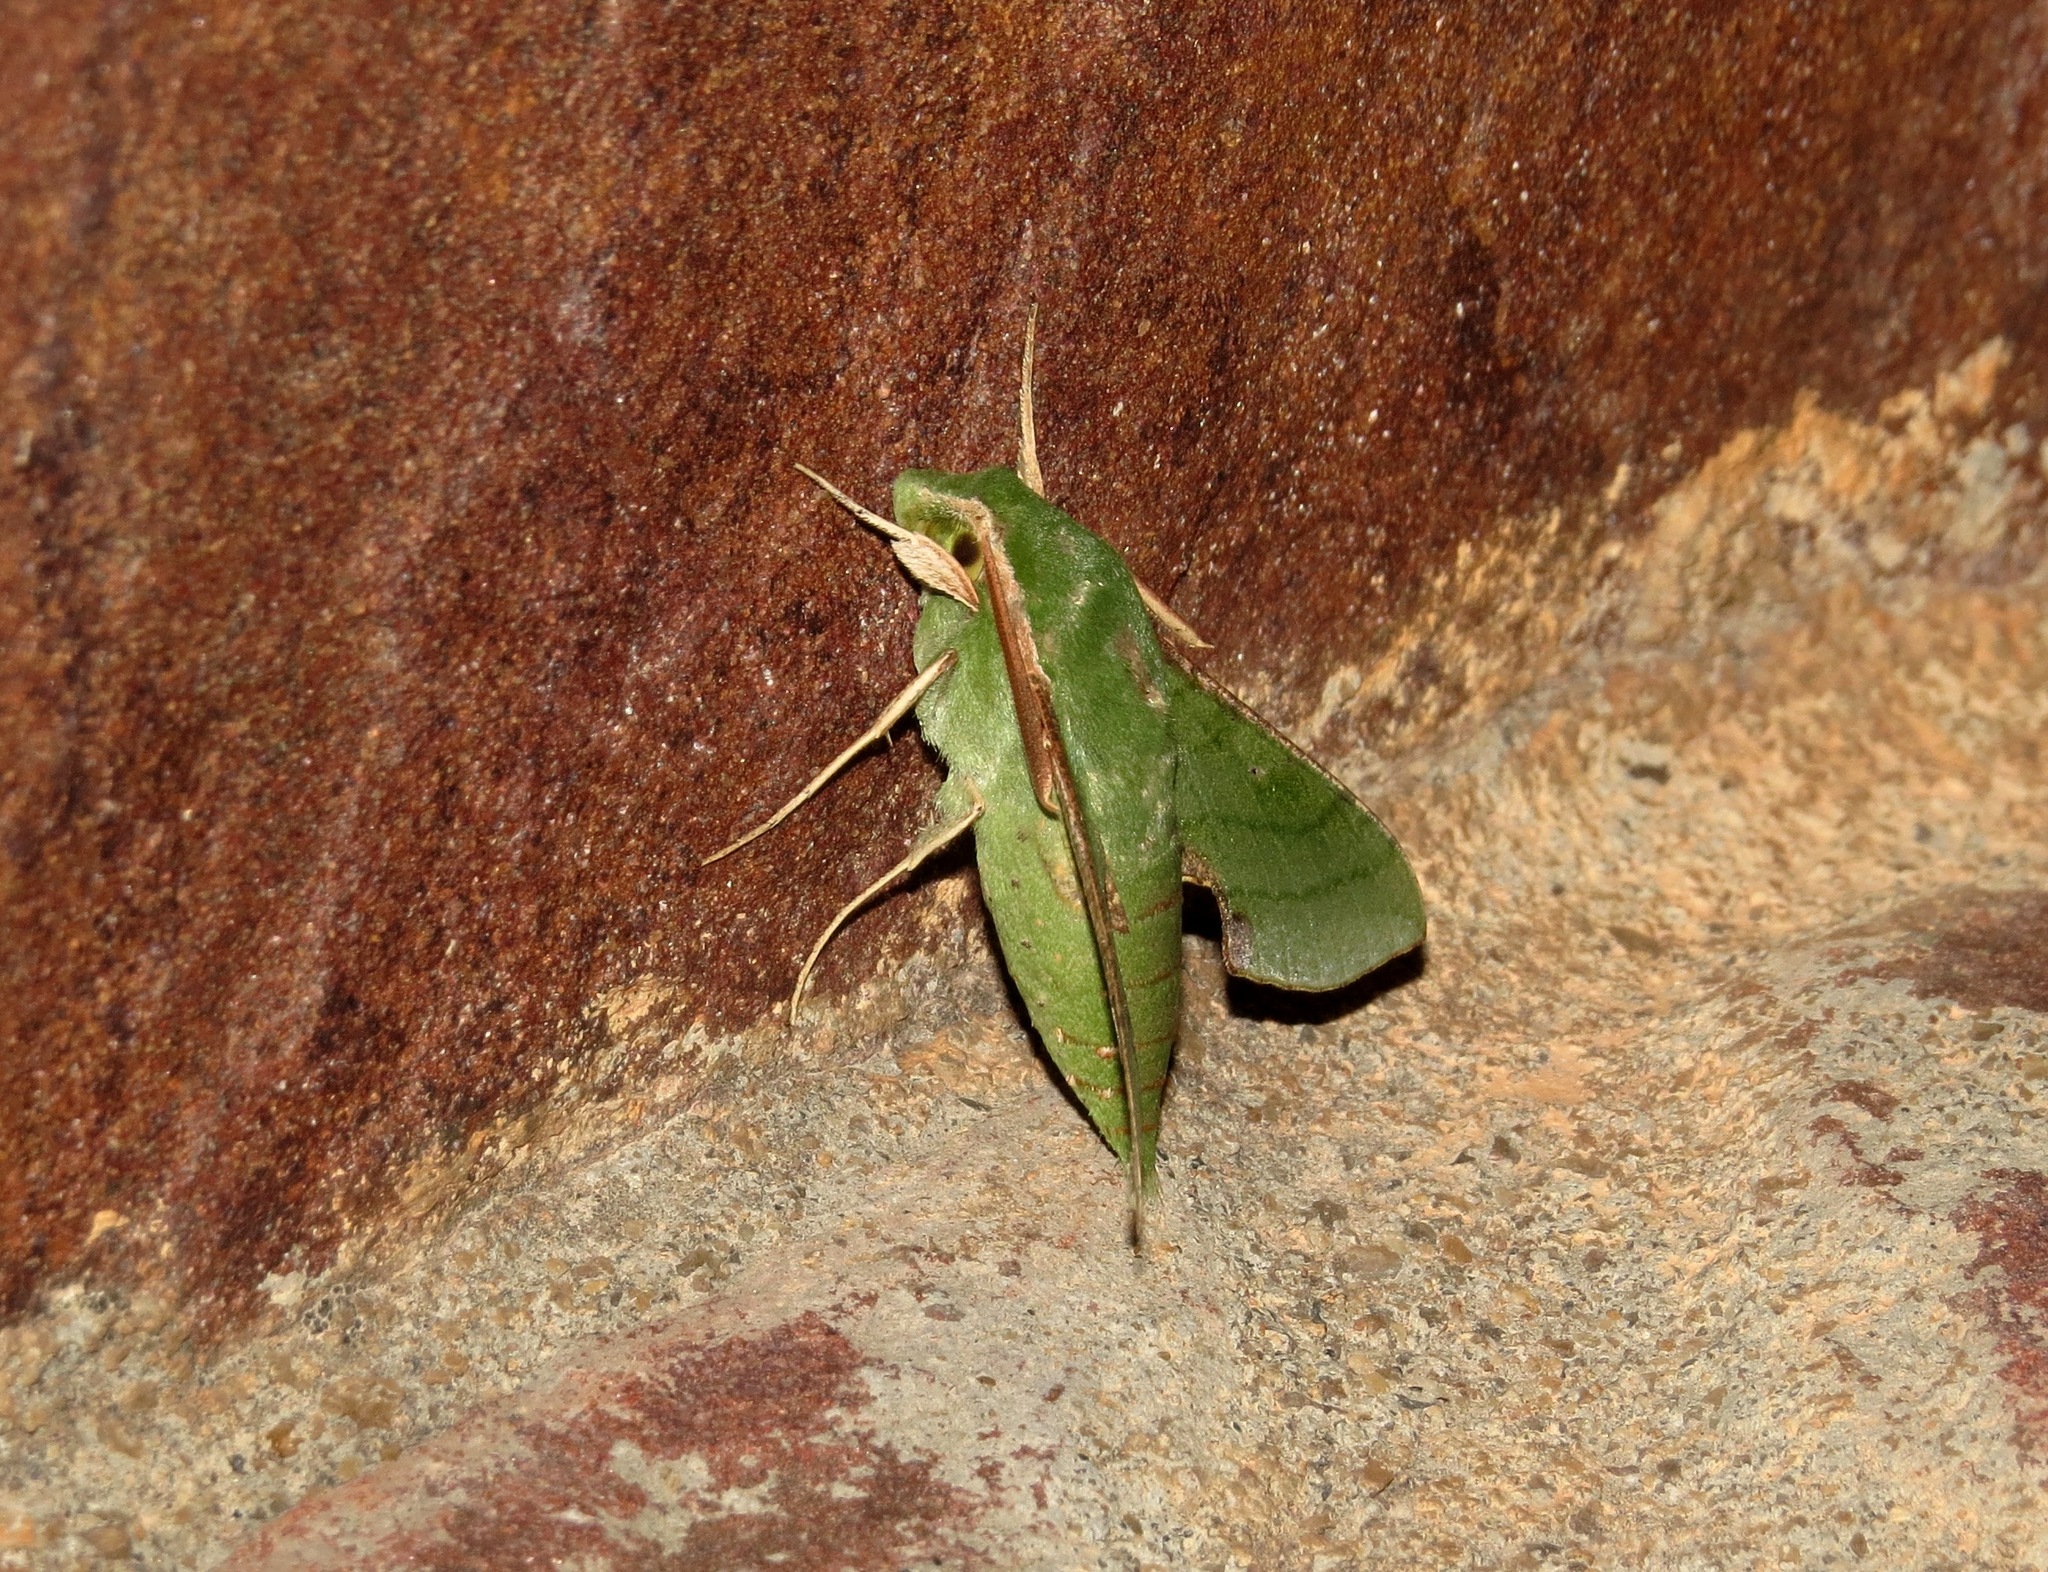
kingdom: Animalia
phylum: Arthropoda
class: Insecta
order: Lepidoptera
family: Sphingidae
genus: Basiothia
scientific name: Basiothia medea
